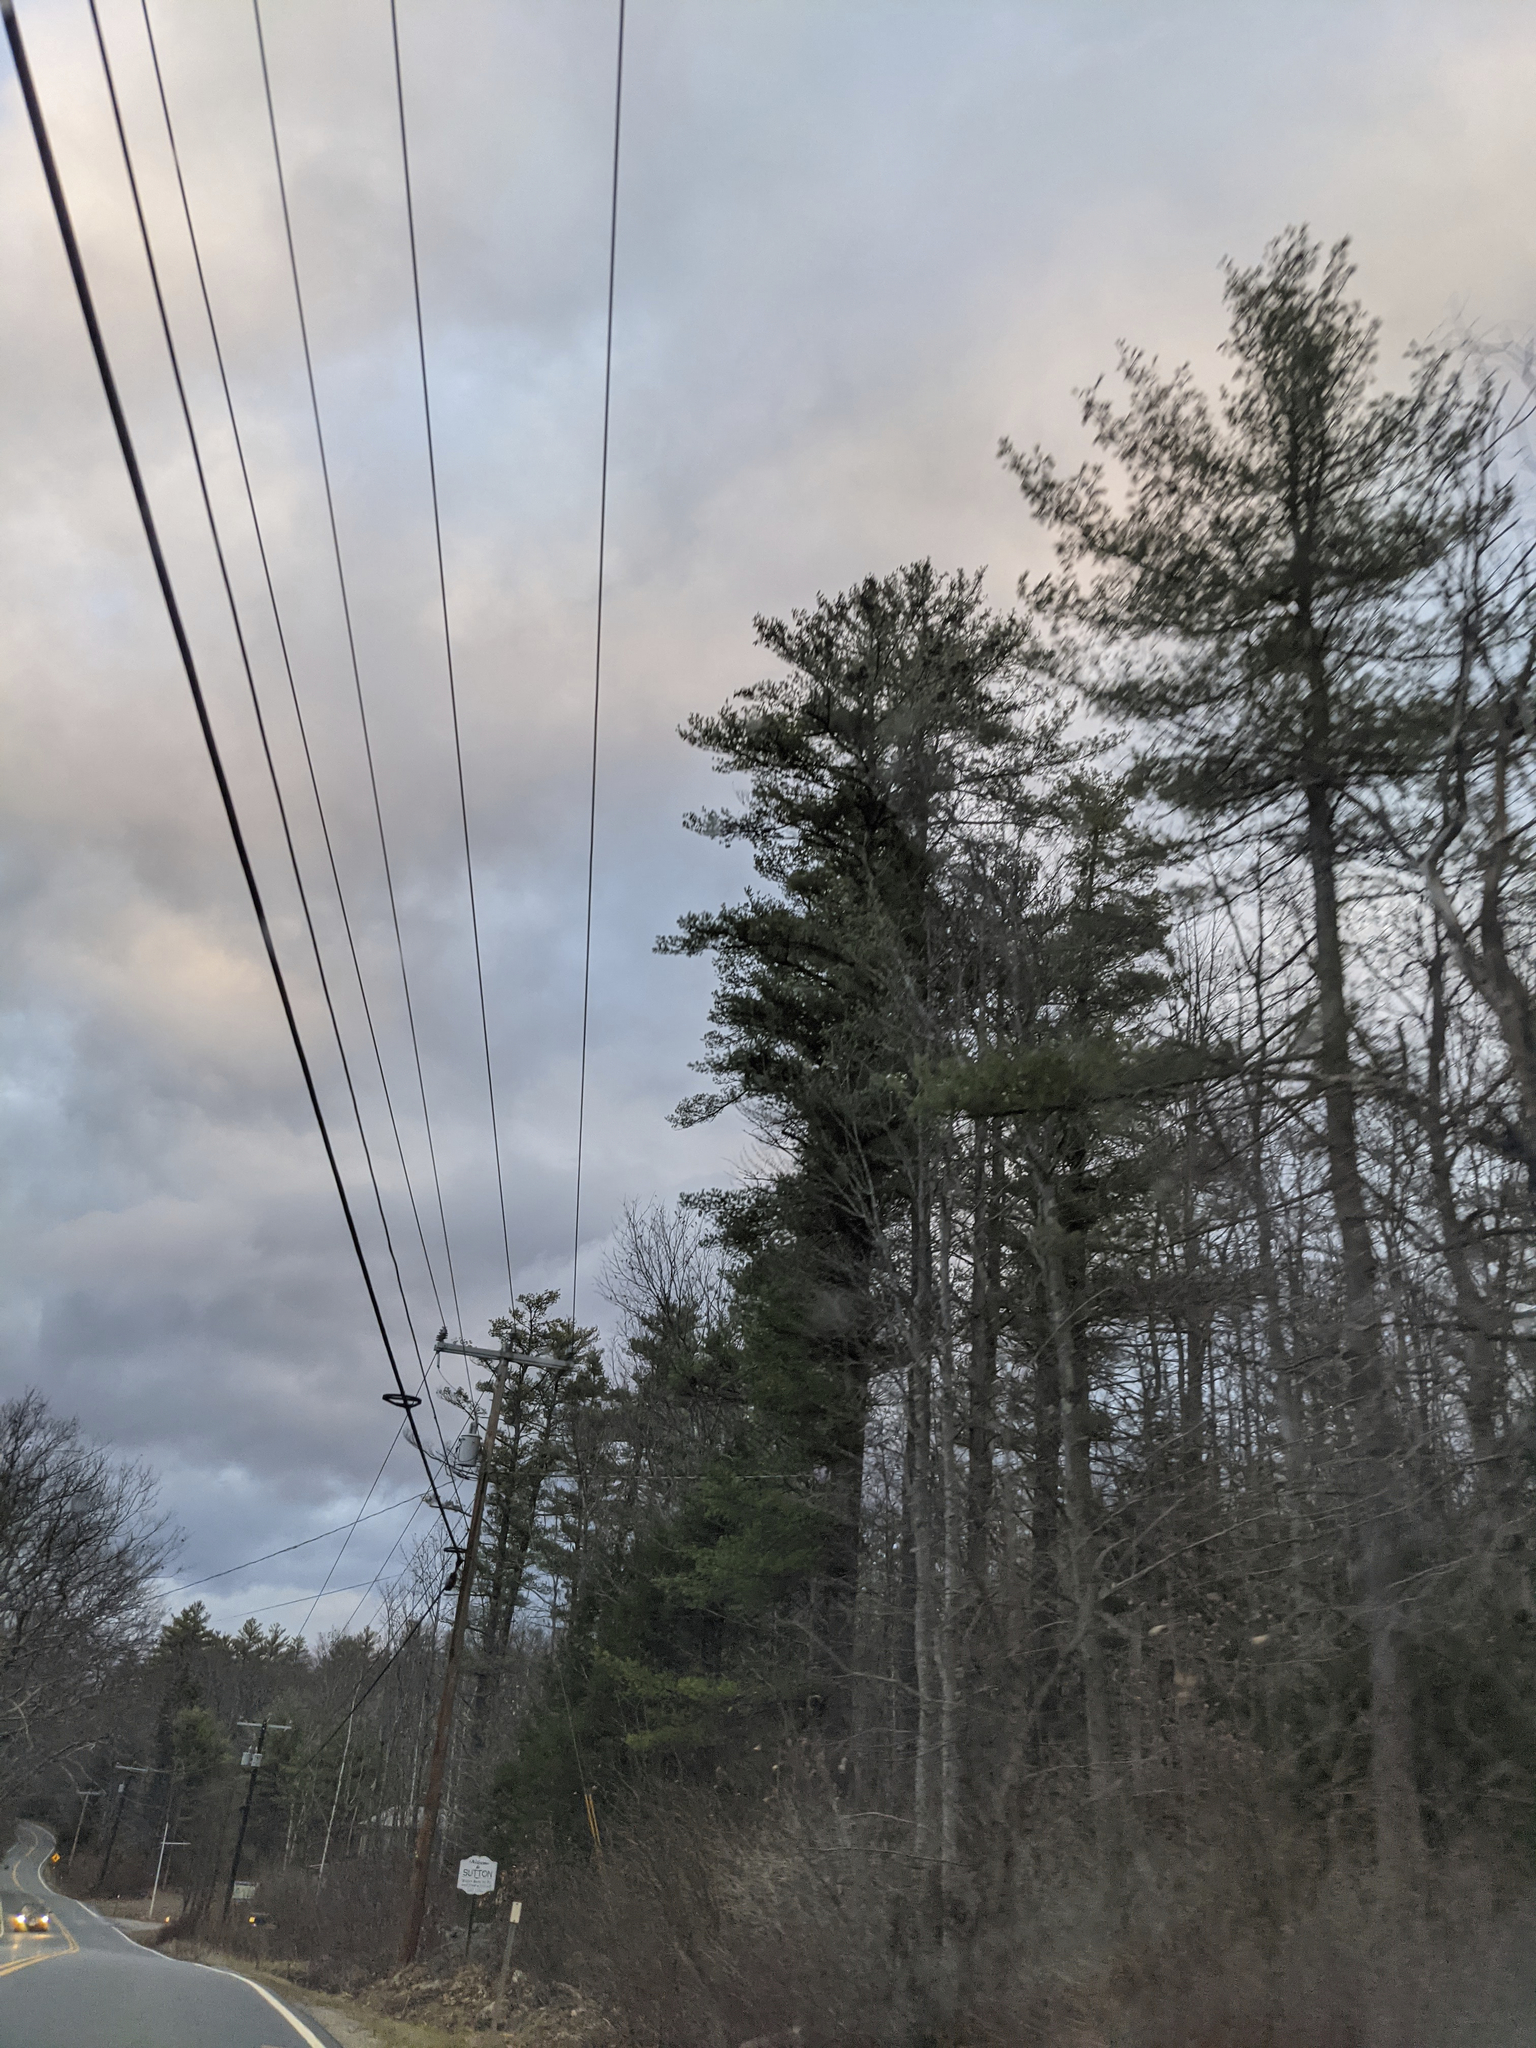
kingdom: Plantae
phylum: Tracheophyta
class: Pinopsida
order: Pinales
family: Pinaceae
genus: Pinus
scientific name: Pinus strobus
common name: Weymouth pine
